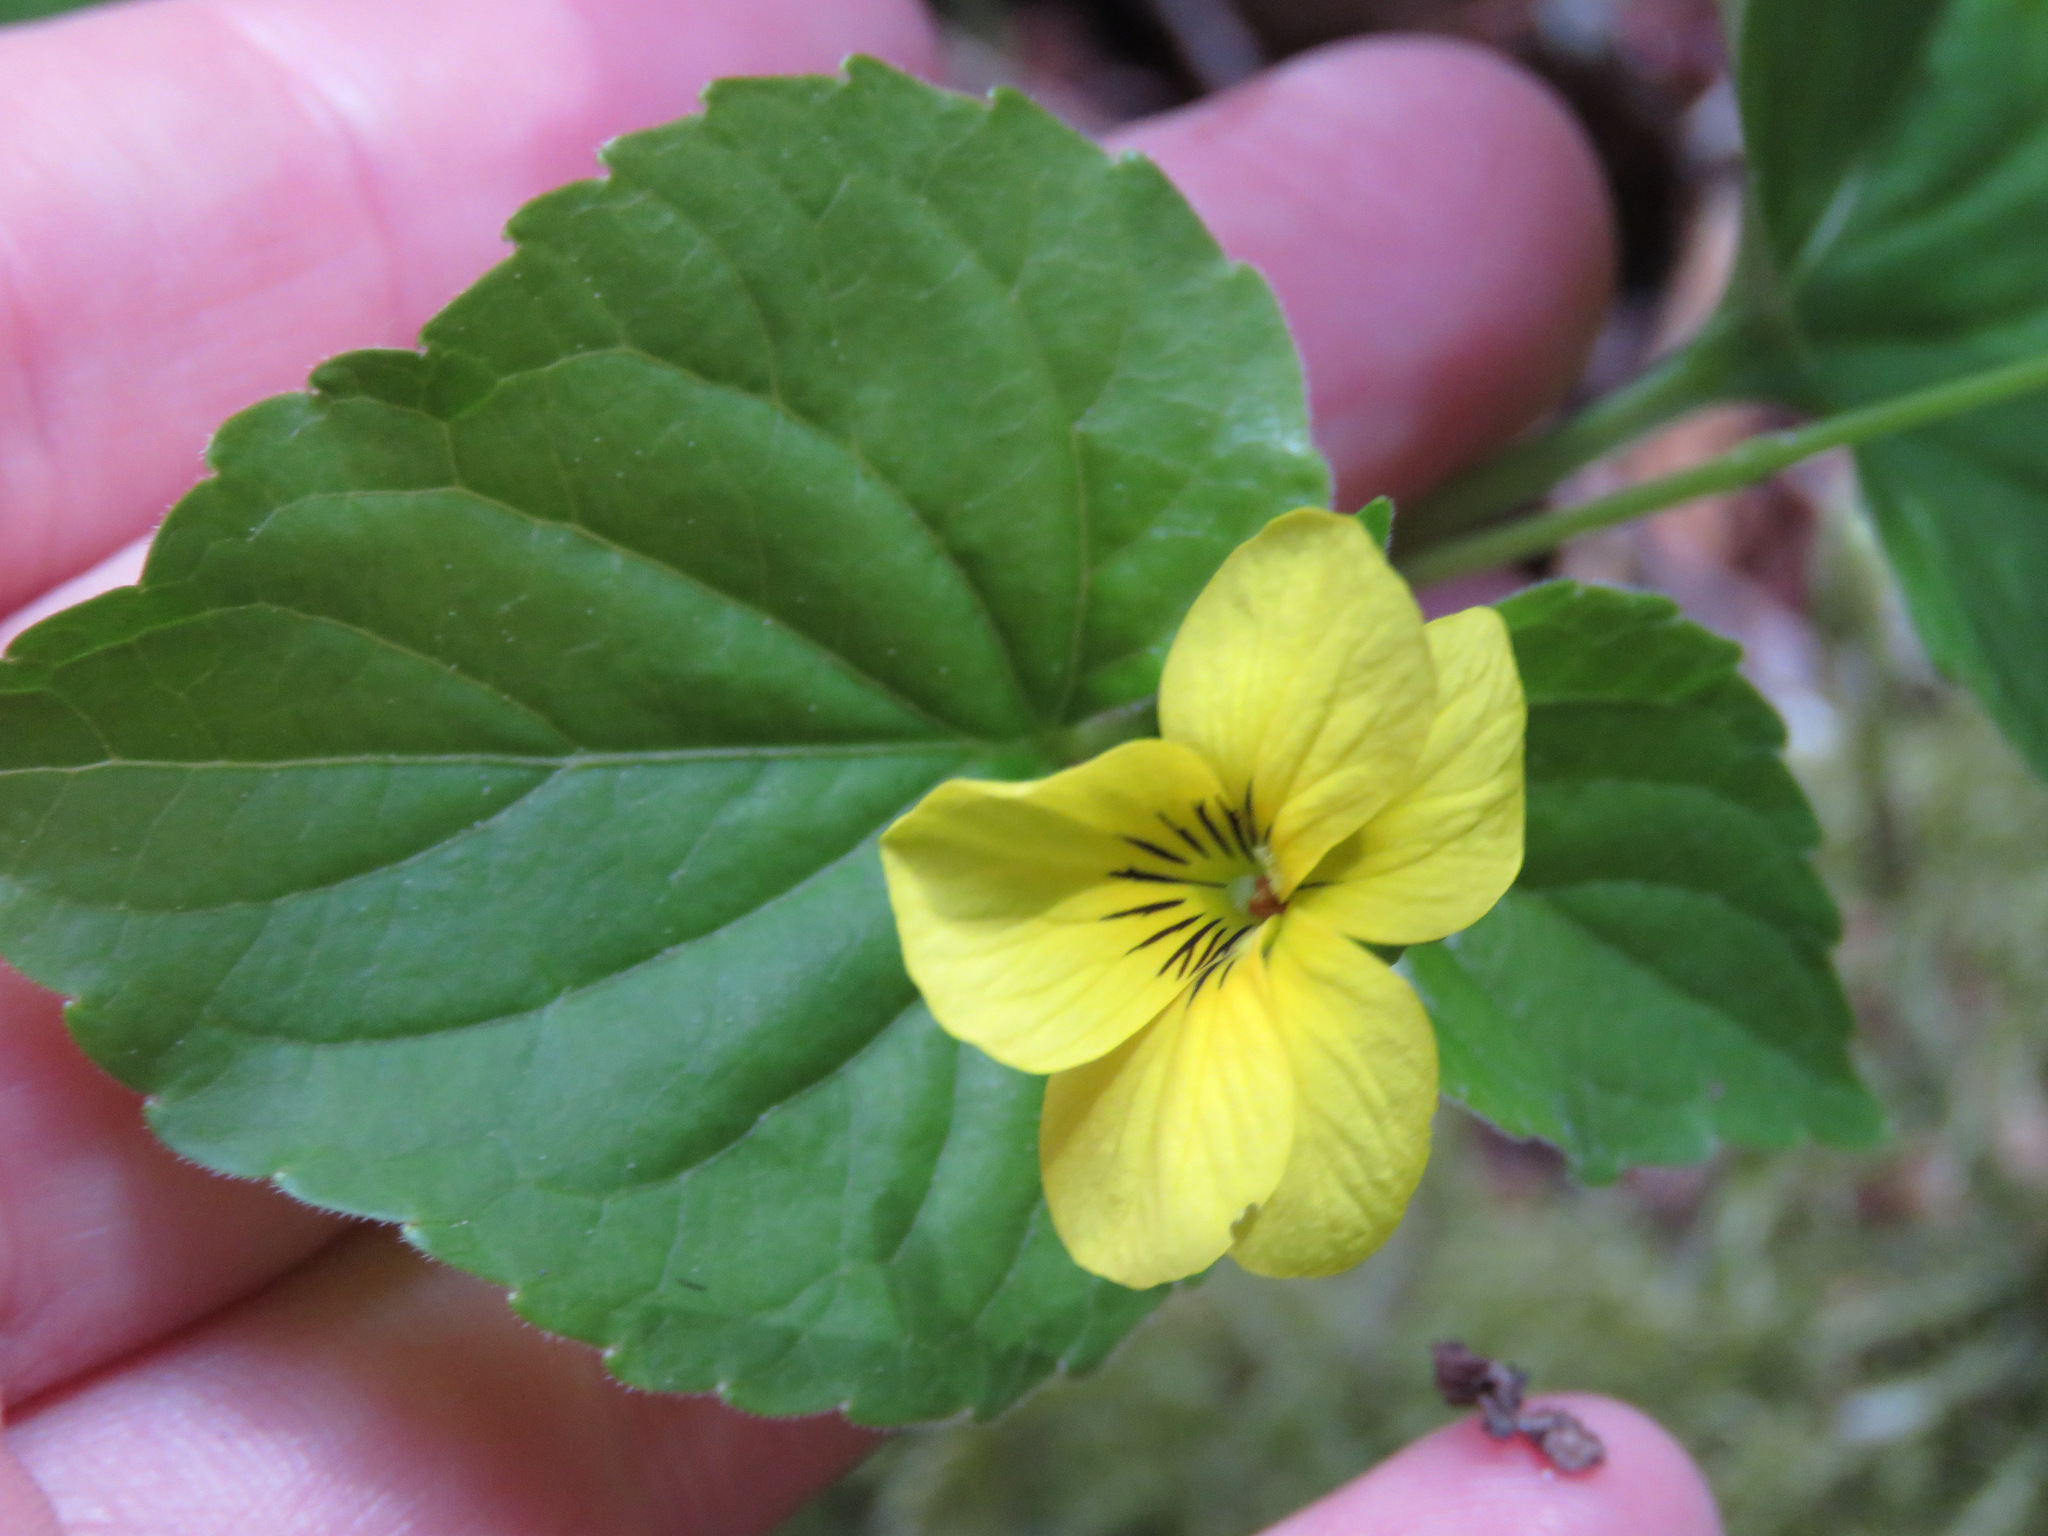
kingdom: Plantae
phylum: Tracheophyta
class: Magnoliopsida
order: Malpighiales
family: Violaceae
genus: Viola
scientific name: Viola glabella
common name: Stream violet
